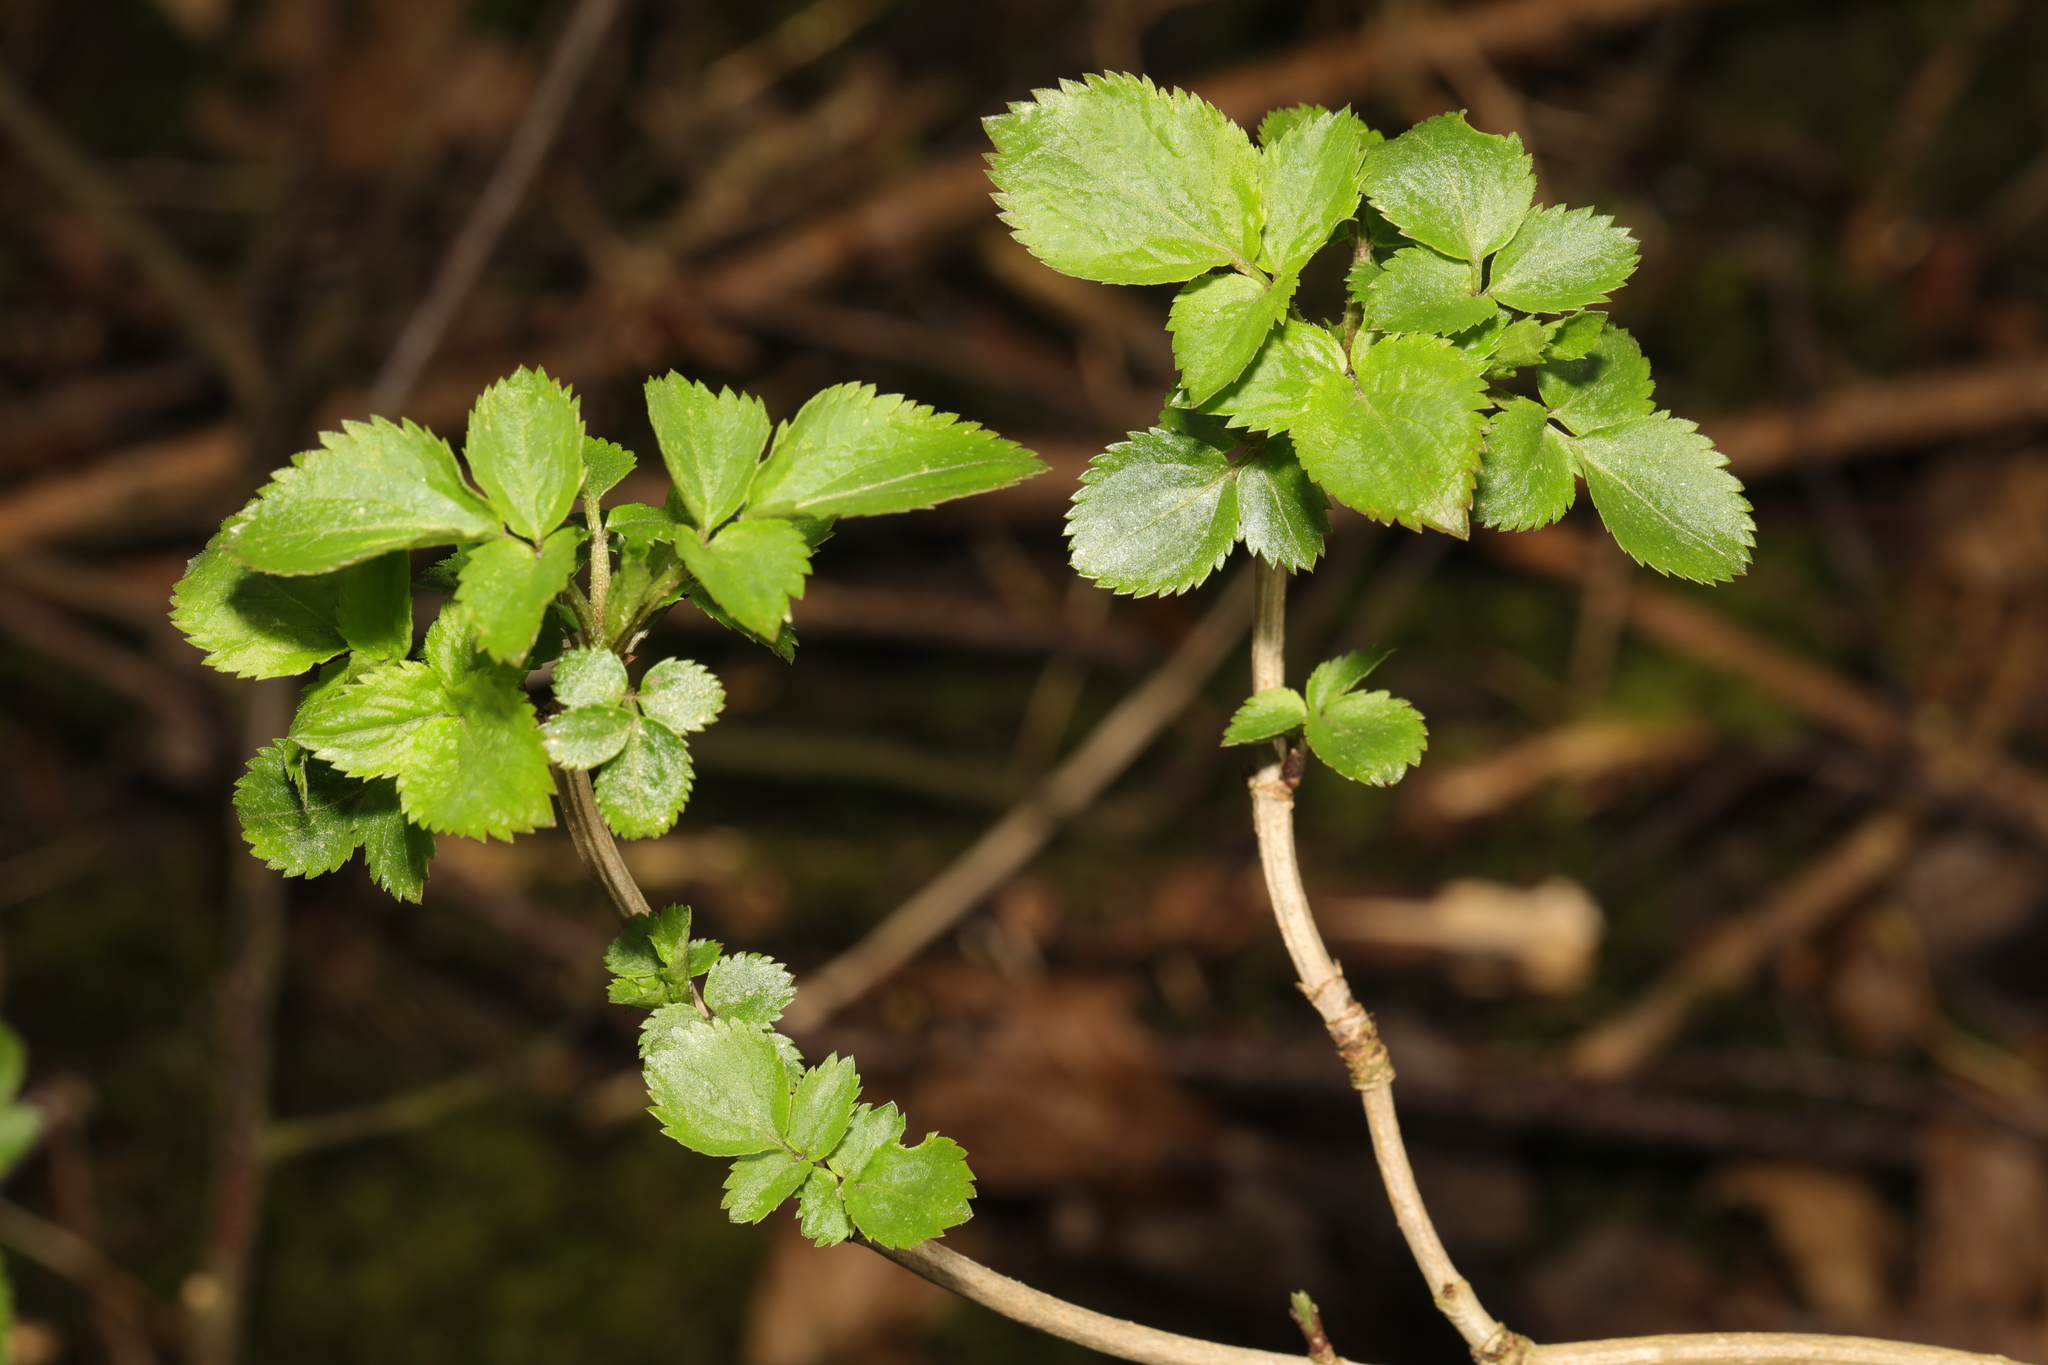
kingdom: Plantae
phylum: Tracheophyta
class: Magnoliopsida
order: Dipsacales
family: Viburnaceae
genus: Sambucus
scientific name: Sambucus nigra
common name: Elder
